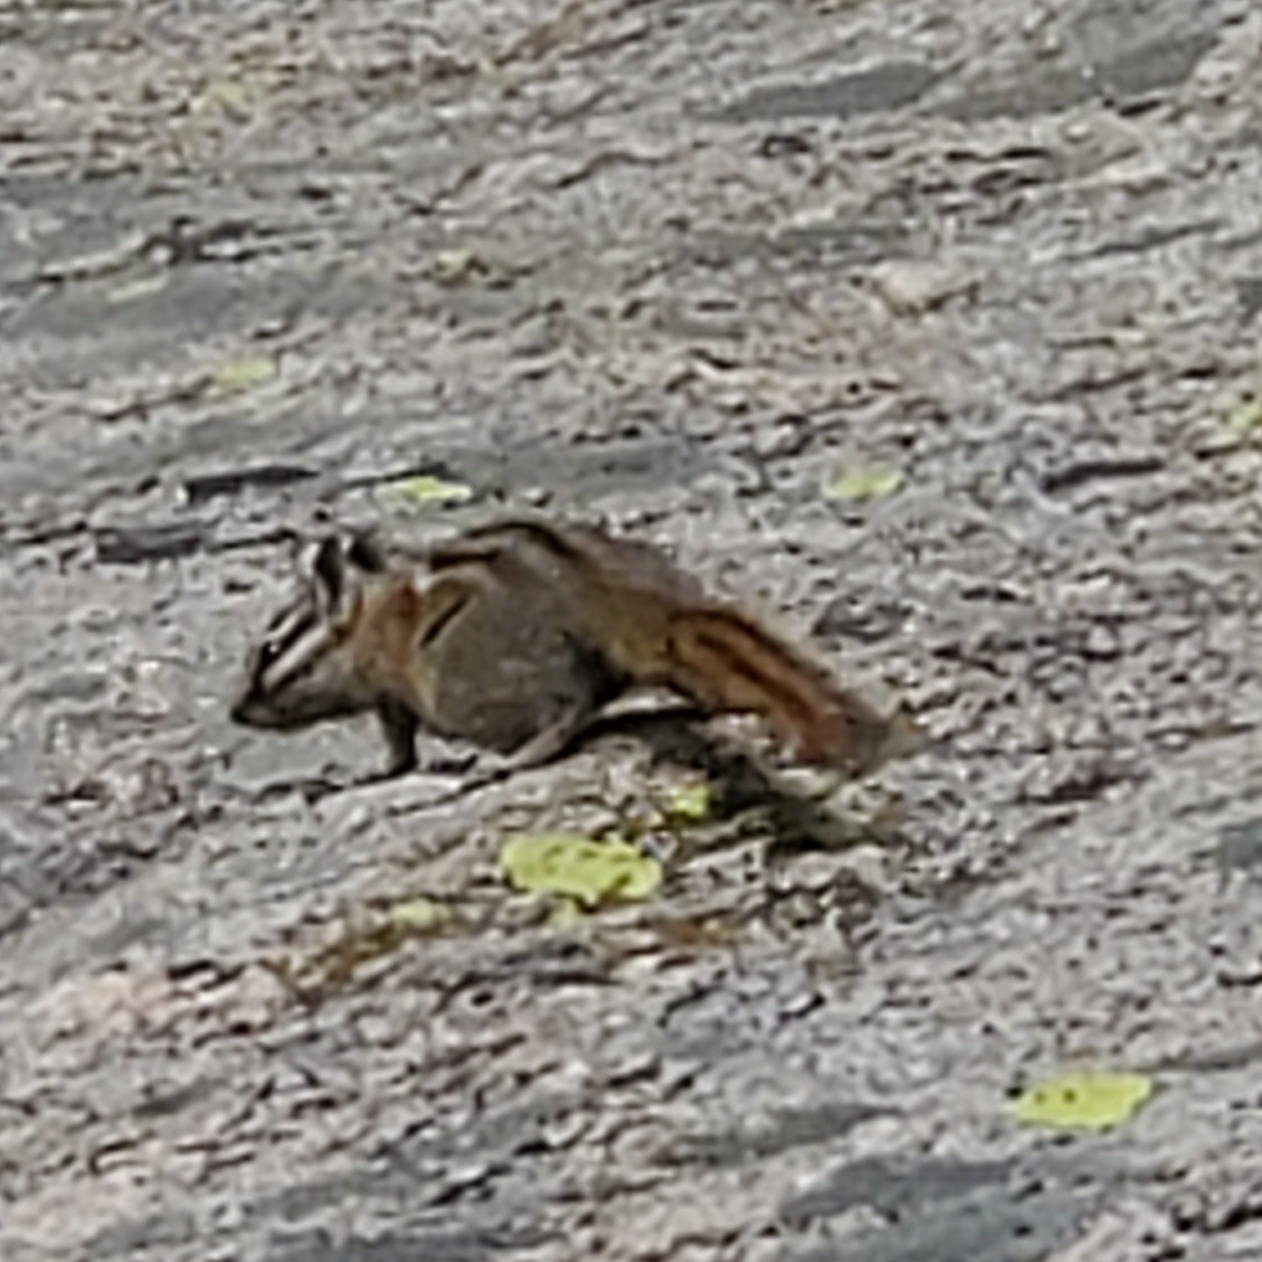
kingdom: Animalia
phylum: Chordata
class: Mammalia
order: Rodentia
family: Sciuridae
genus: Tamias
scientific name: Tamias umbrinus
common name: Uinta chipmunk
